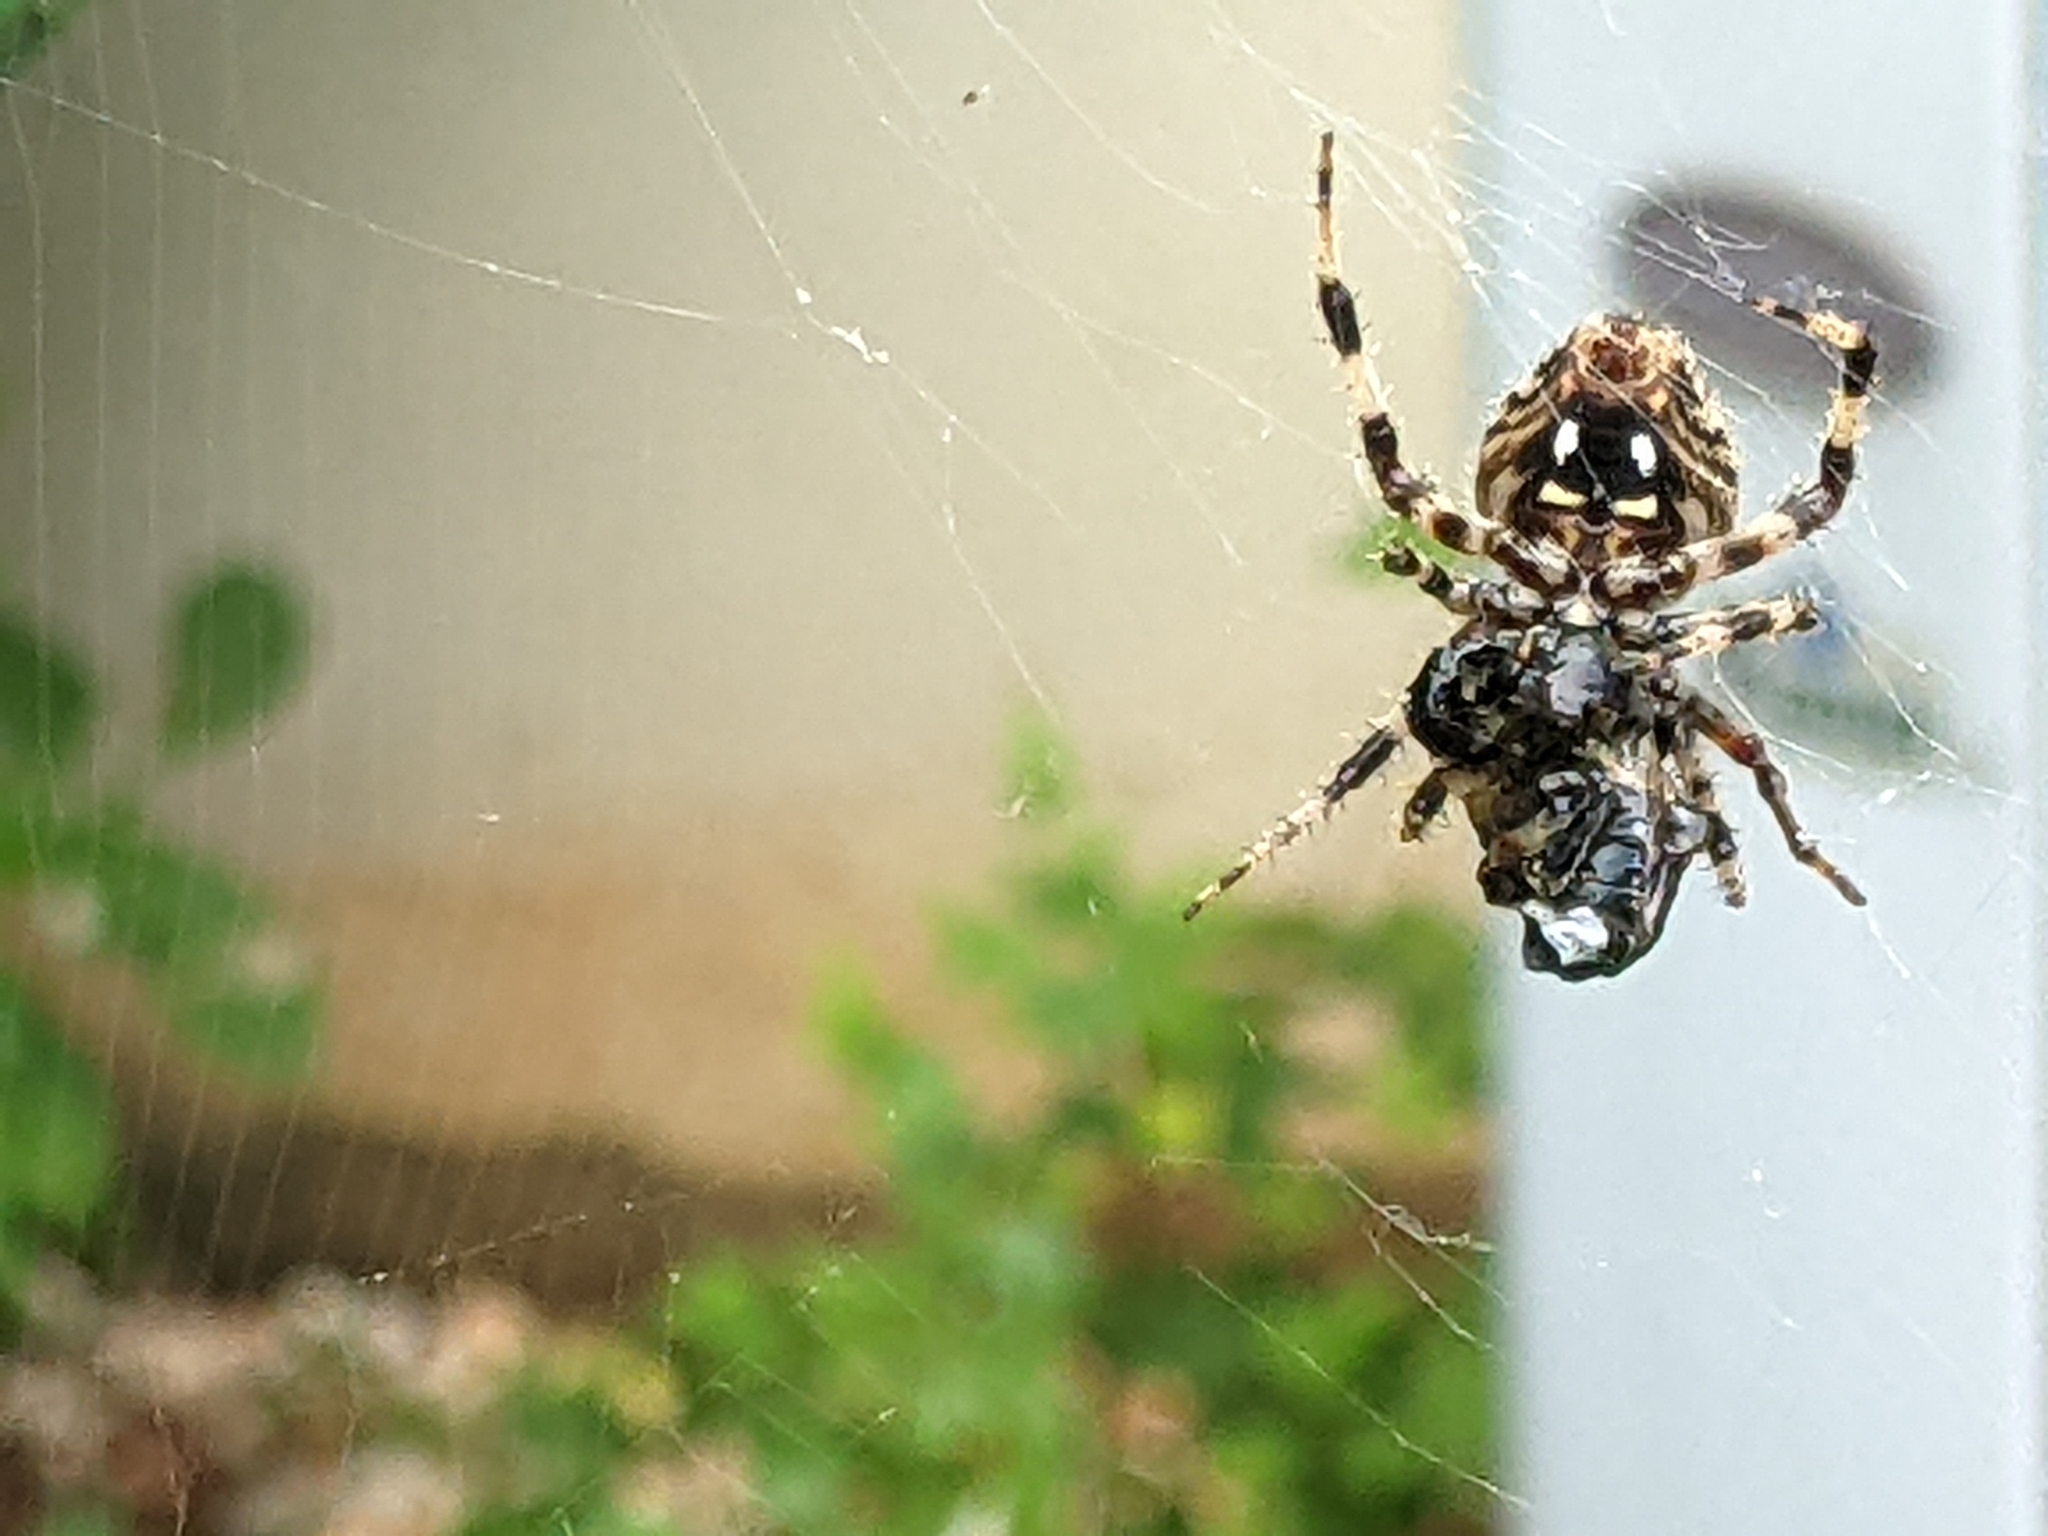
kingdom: Animalia
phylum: Arthropoda
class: Arachnida
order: Araneae
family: Araneidae
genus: Neoscona
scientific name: Neoscona crucifera
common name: Spotted orbweaver
